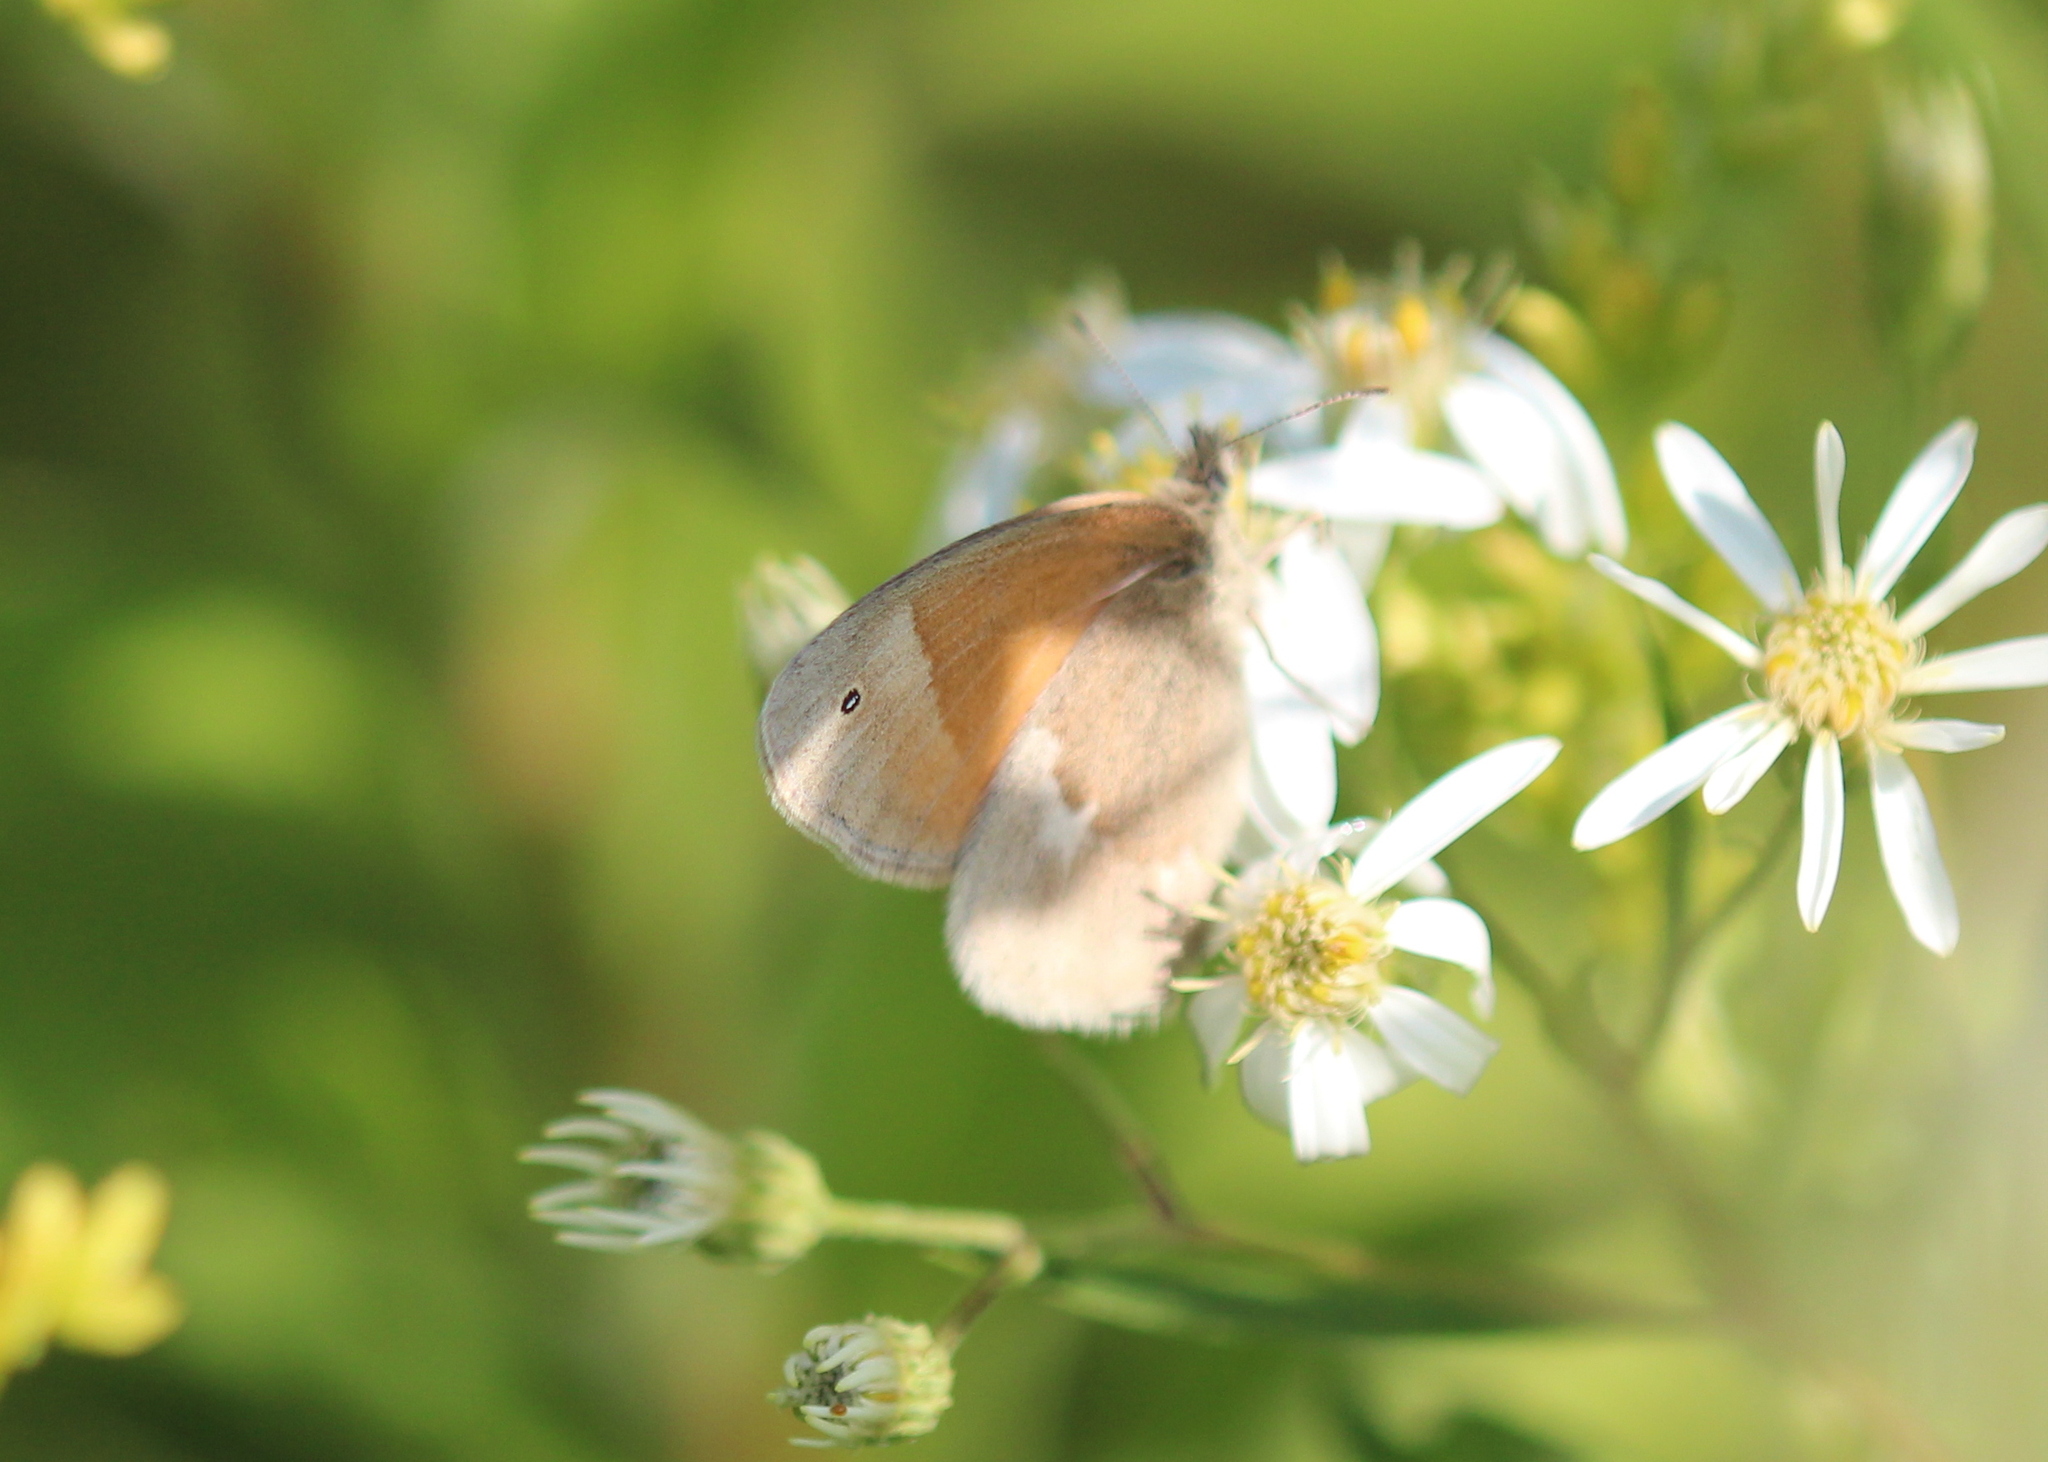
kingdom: Animalia
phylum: Arthropoda
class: Insecta
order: Lepidoptera
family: Nymphalidae
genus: Coenonympha
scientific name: Coenonympha california
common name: Common ringlet
